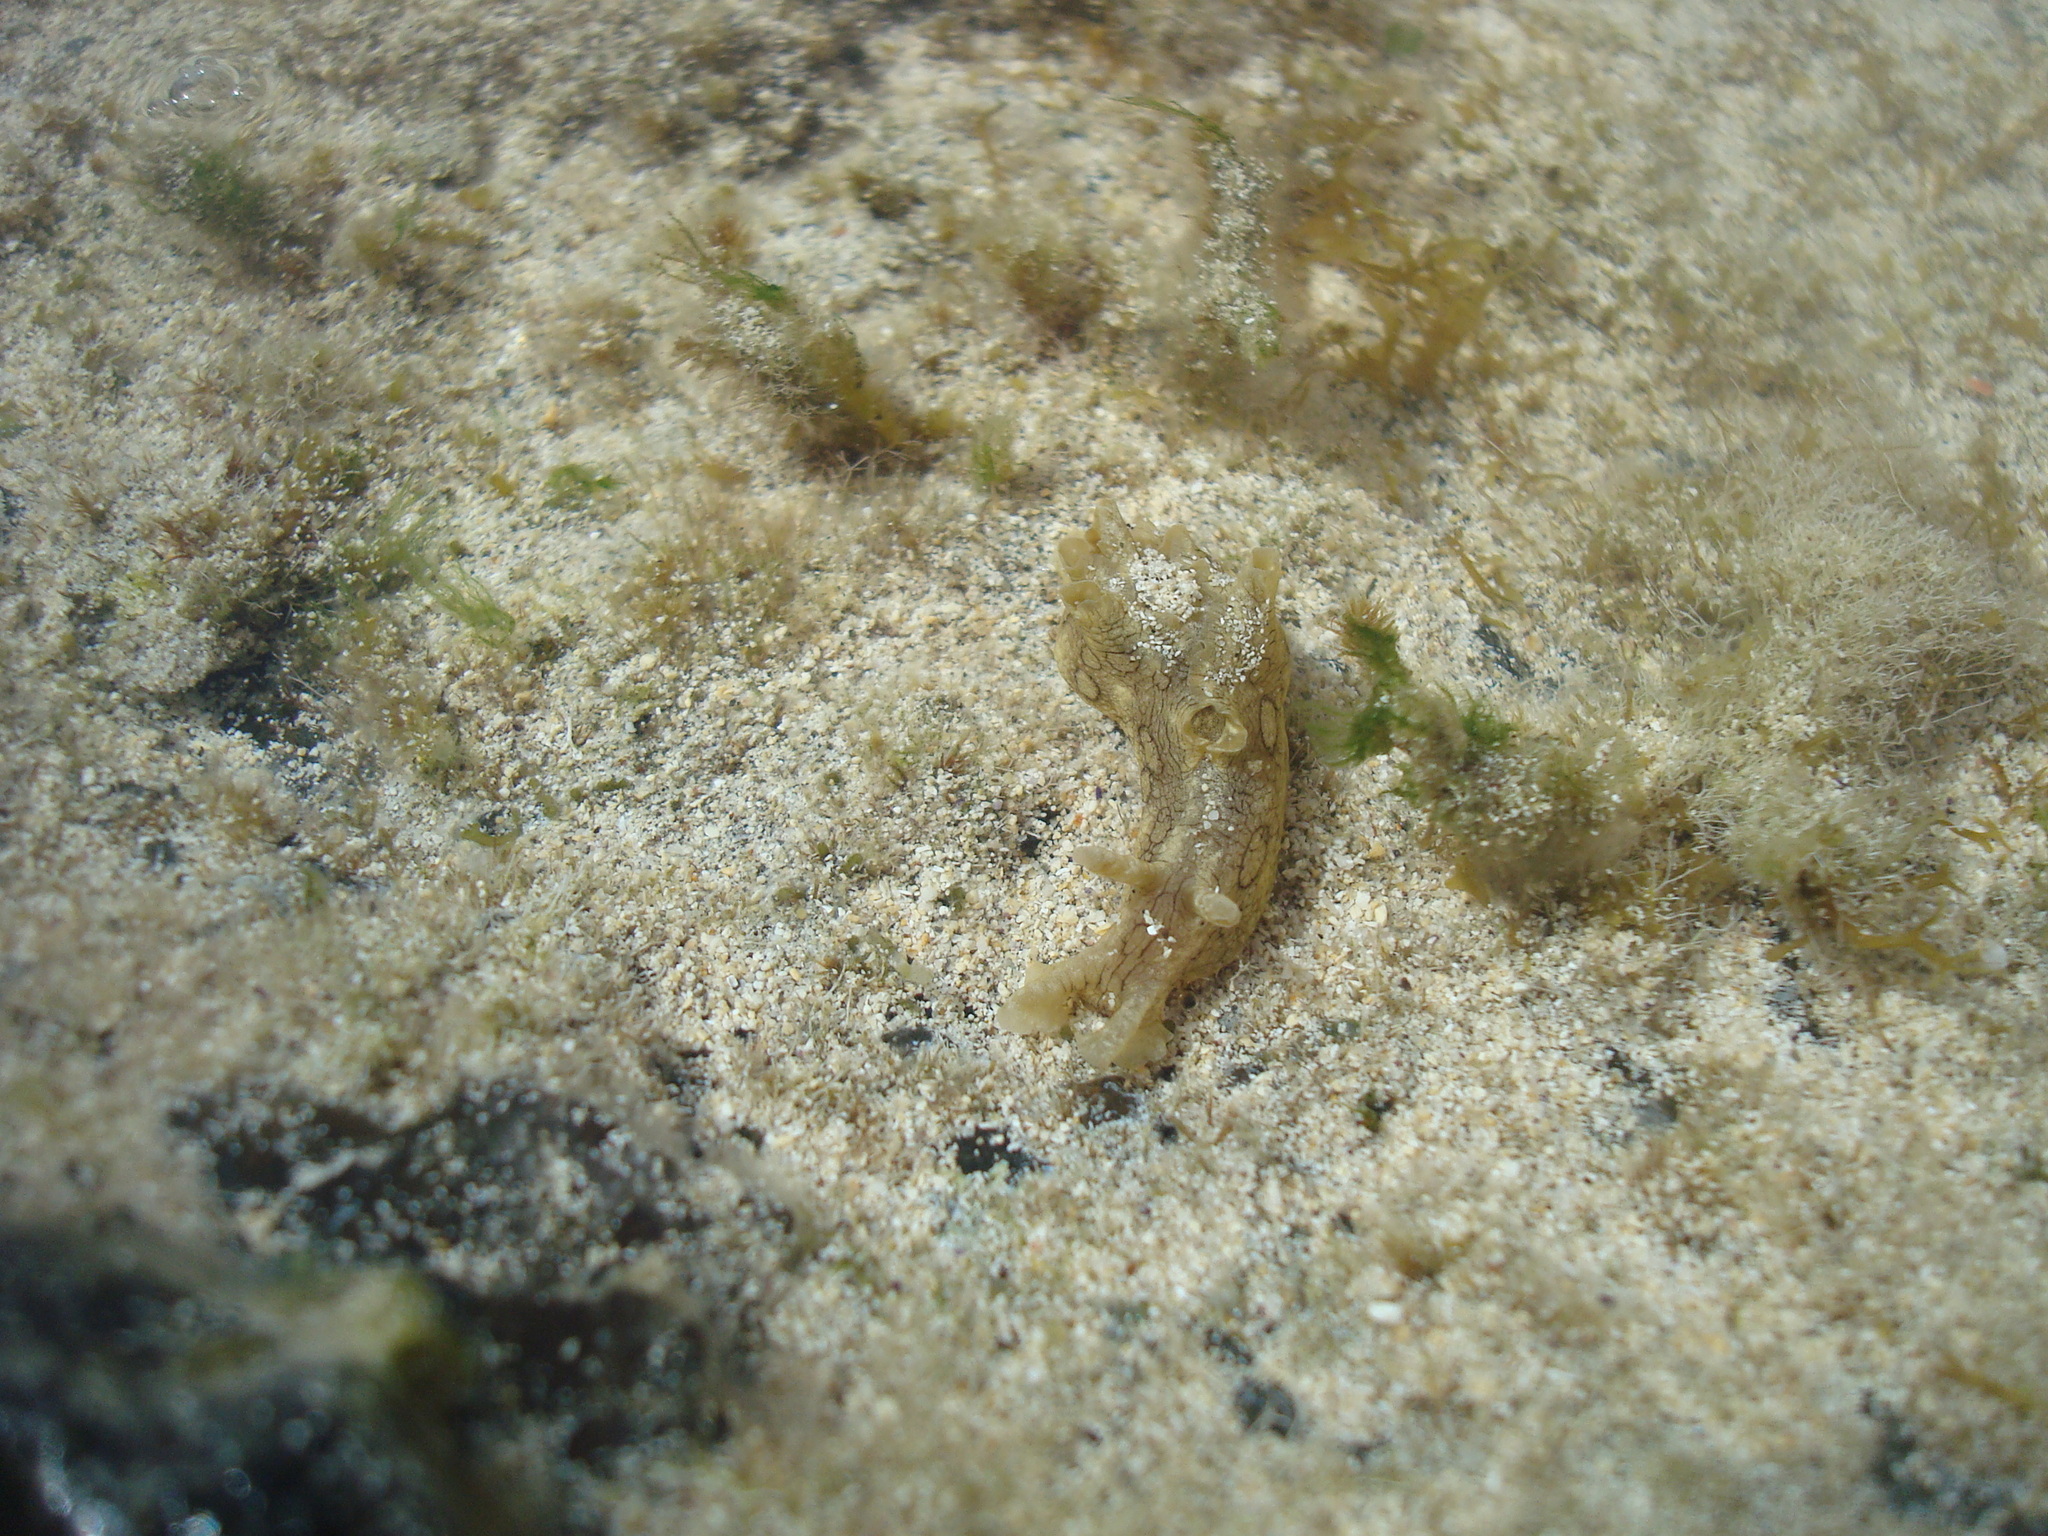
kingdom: Animalia
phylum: Mollusca
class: Gastropoda
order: Aplysiida
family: Aplysiidae
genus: Aplysia
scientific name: Aplysia dactylomela
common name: Large-spotted sea hare
